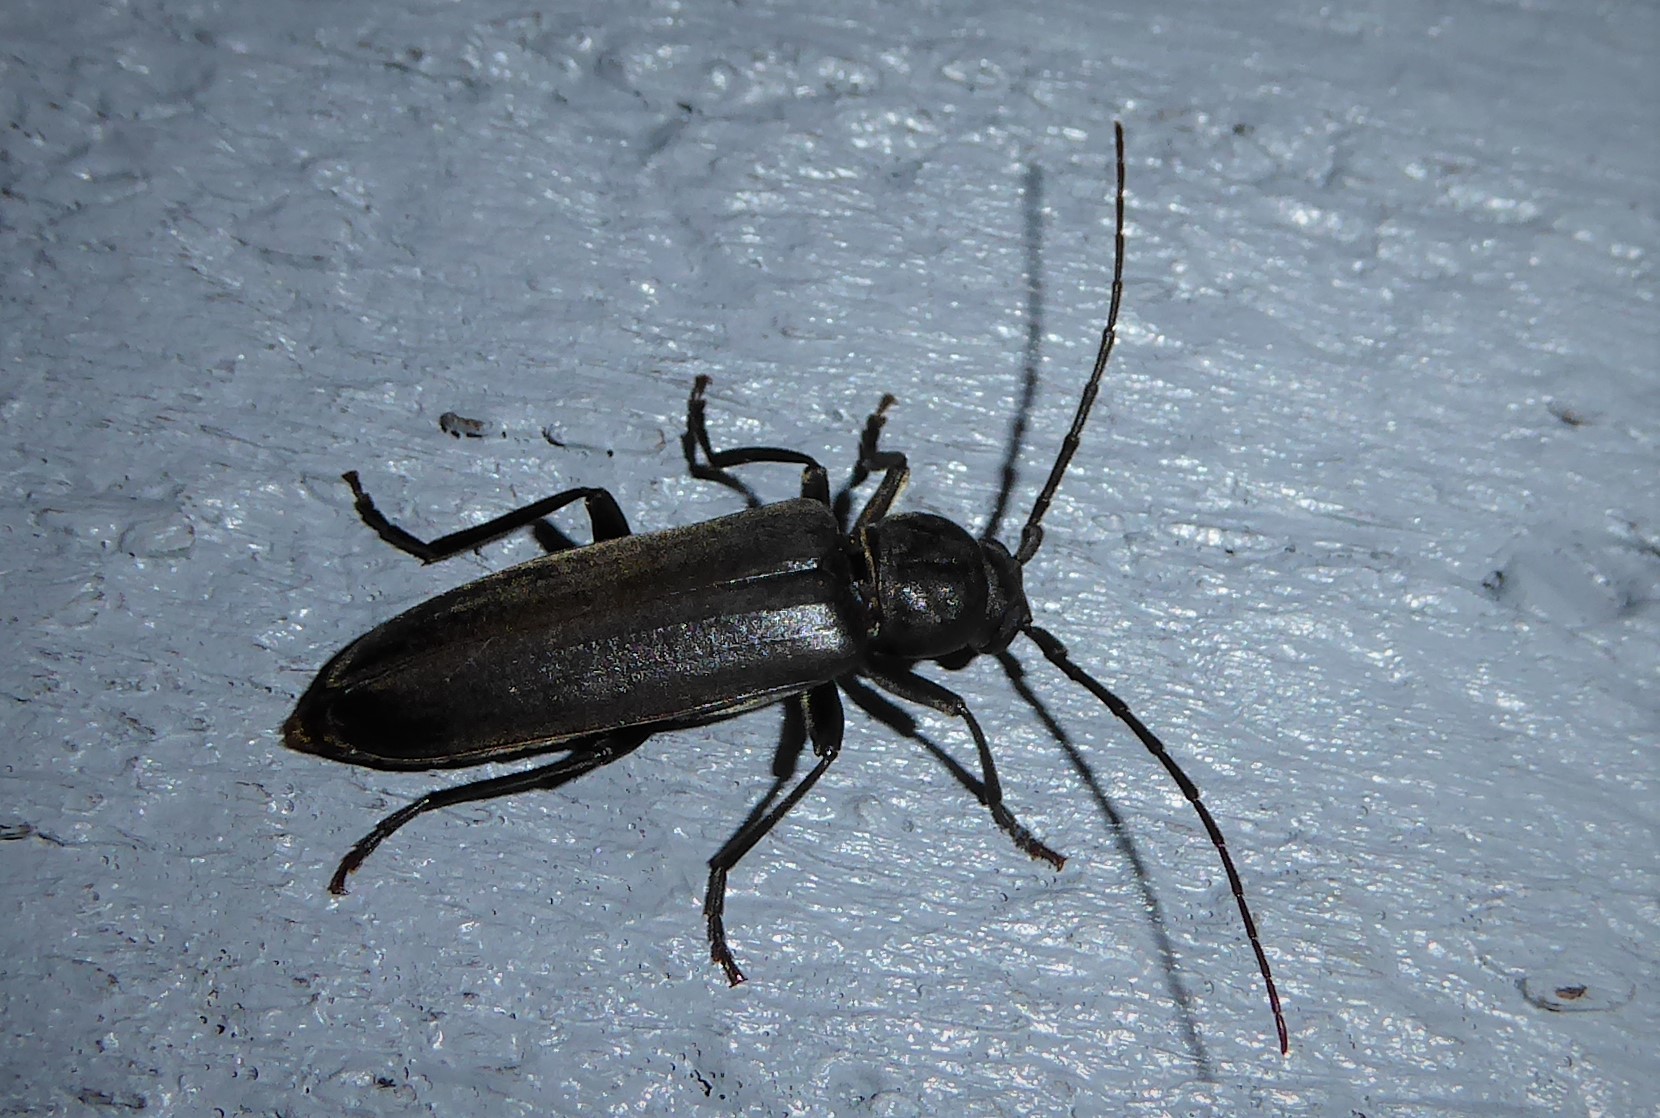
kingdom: Animalia
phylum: Arthropoda
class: Insecta
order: Coleoptera
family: Cerambycidae
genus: Arhopalus
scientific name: Arhopalus ferus
